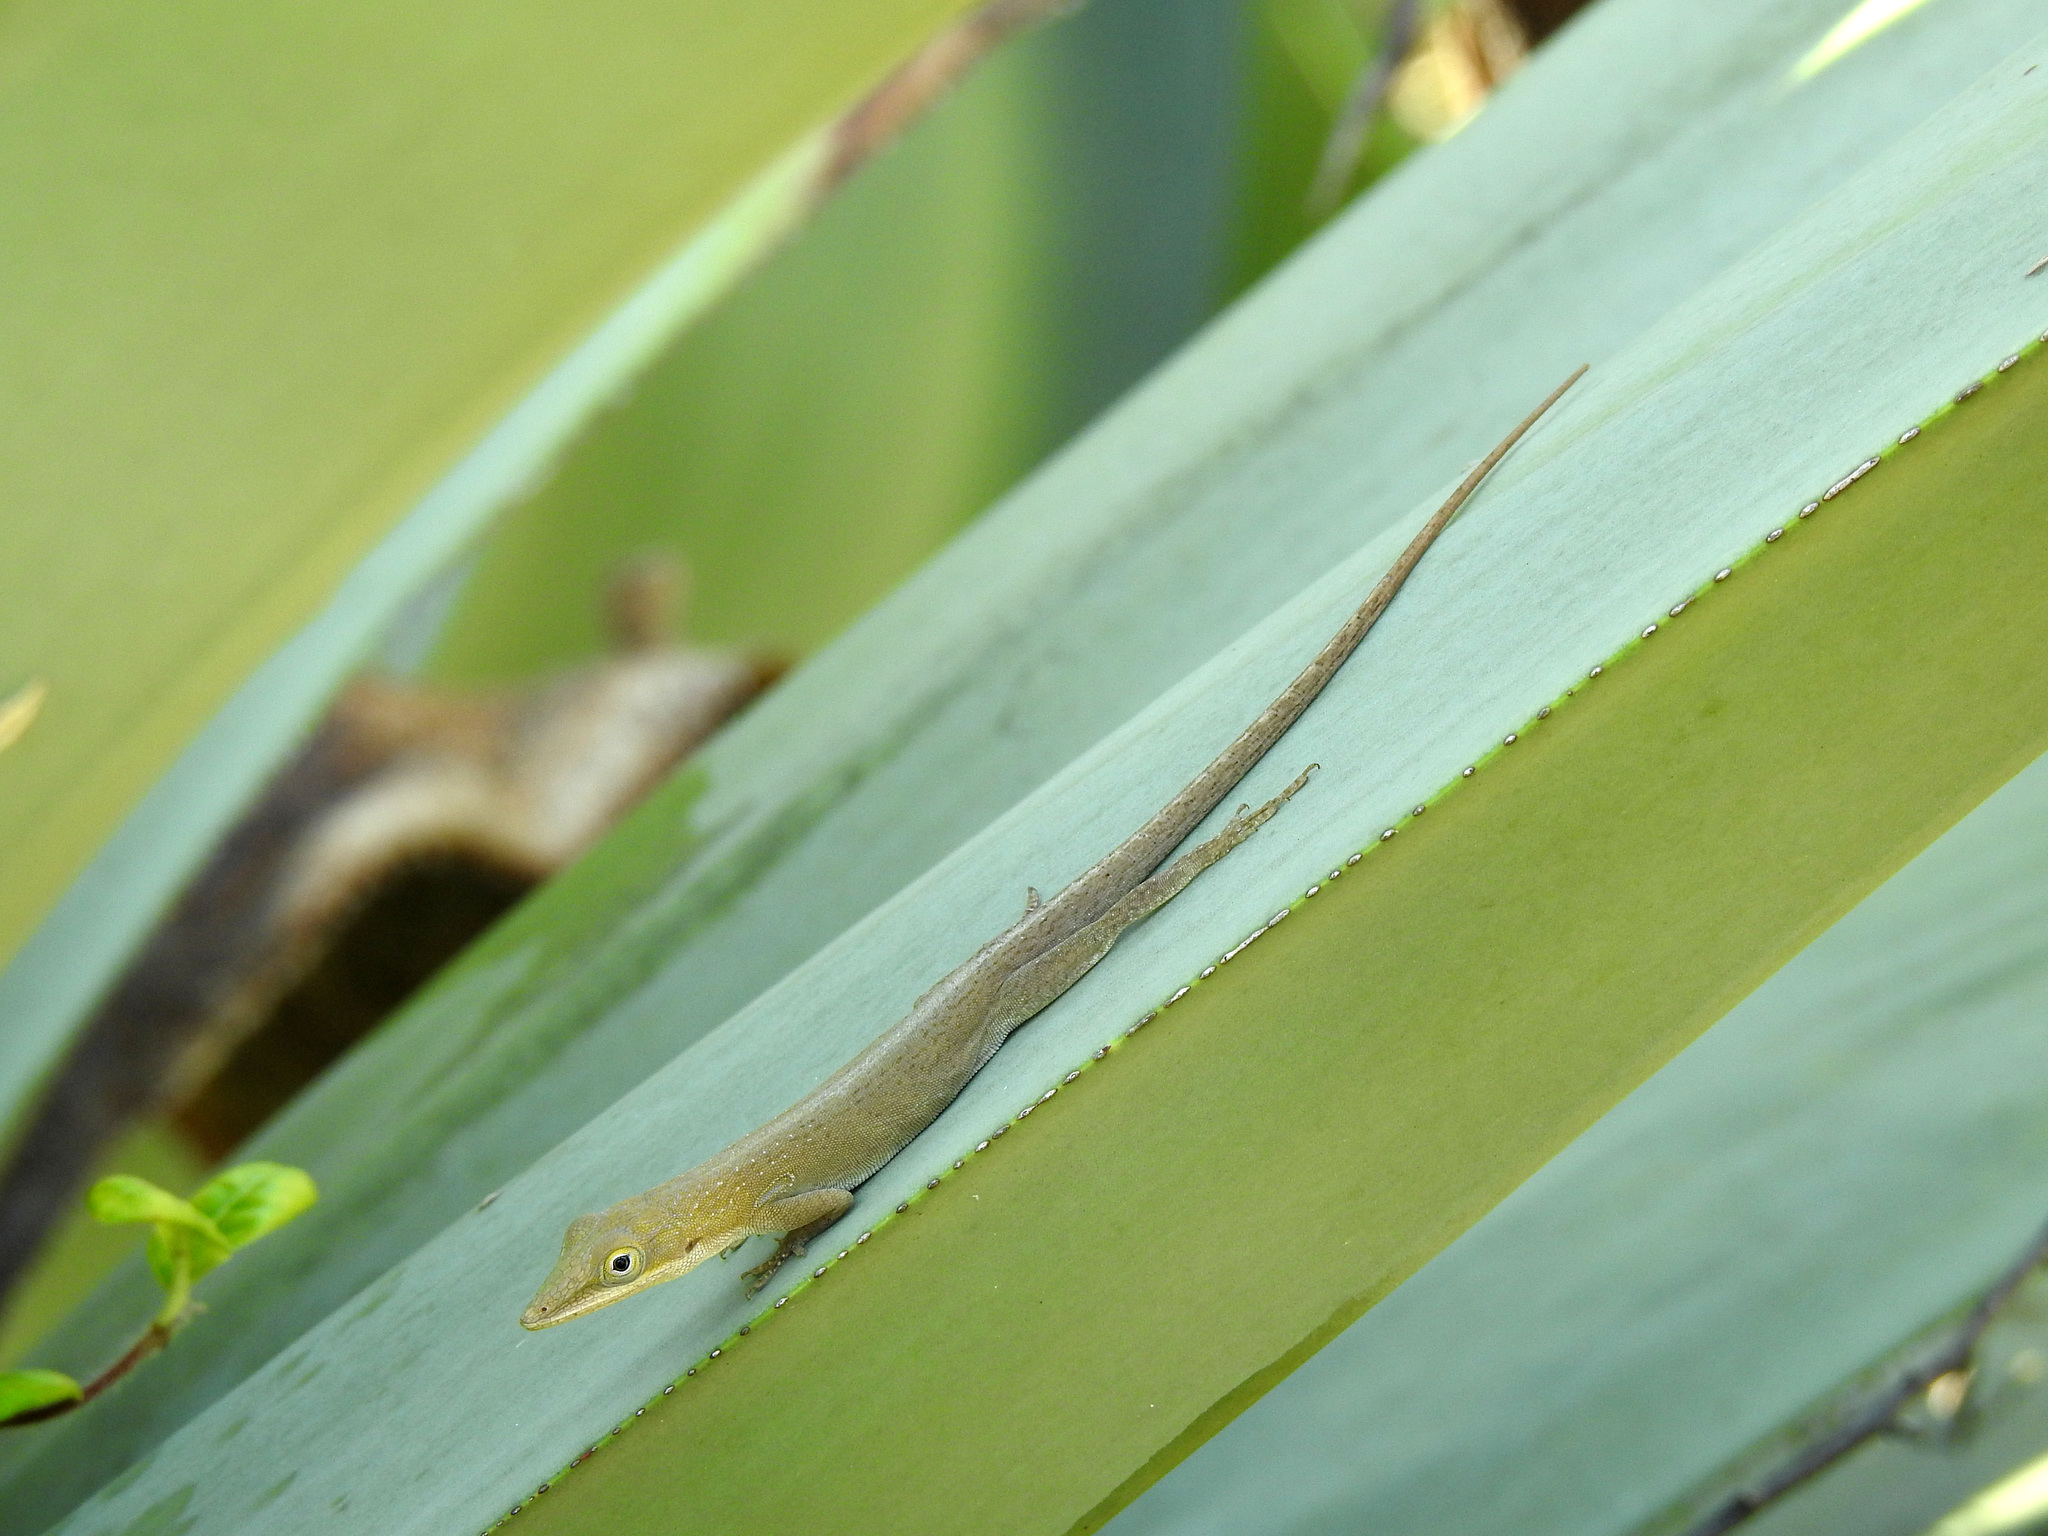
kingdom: Animalia
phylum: Chordata
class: Squamata
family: Dactyloidae
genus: Anolis
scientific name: Anolis porcatus
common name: Cuban green anole
